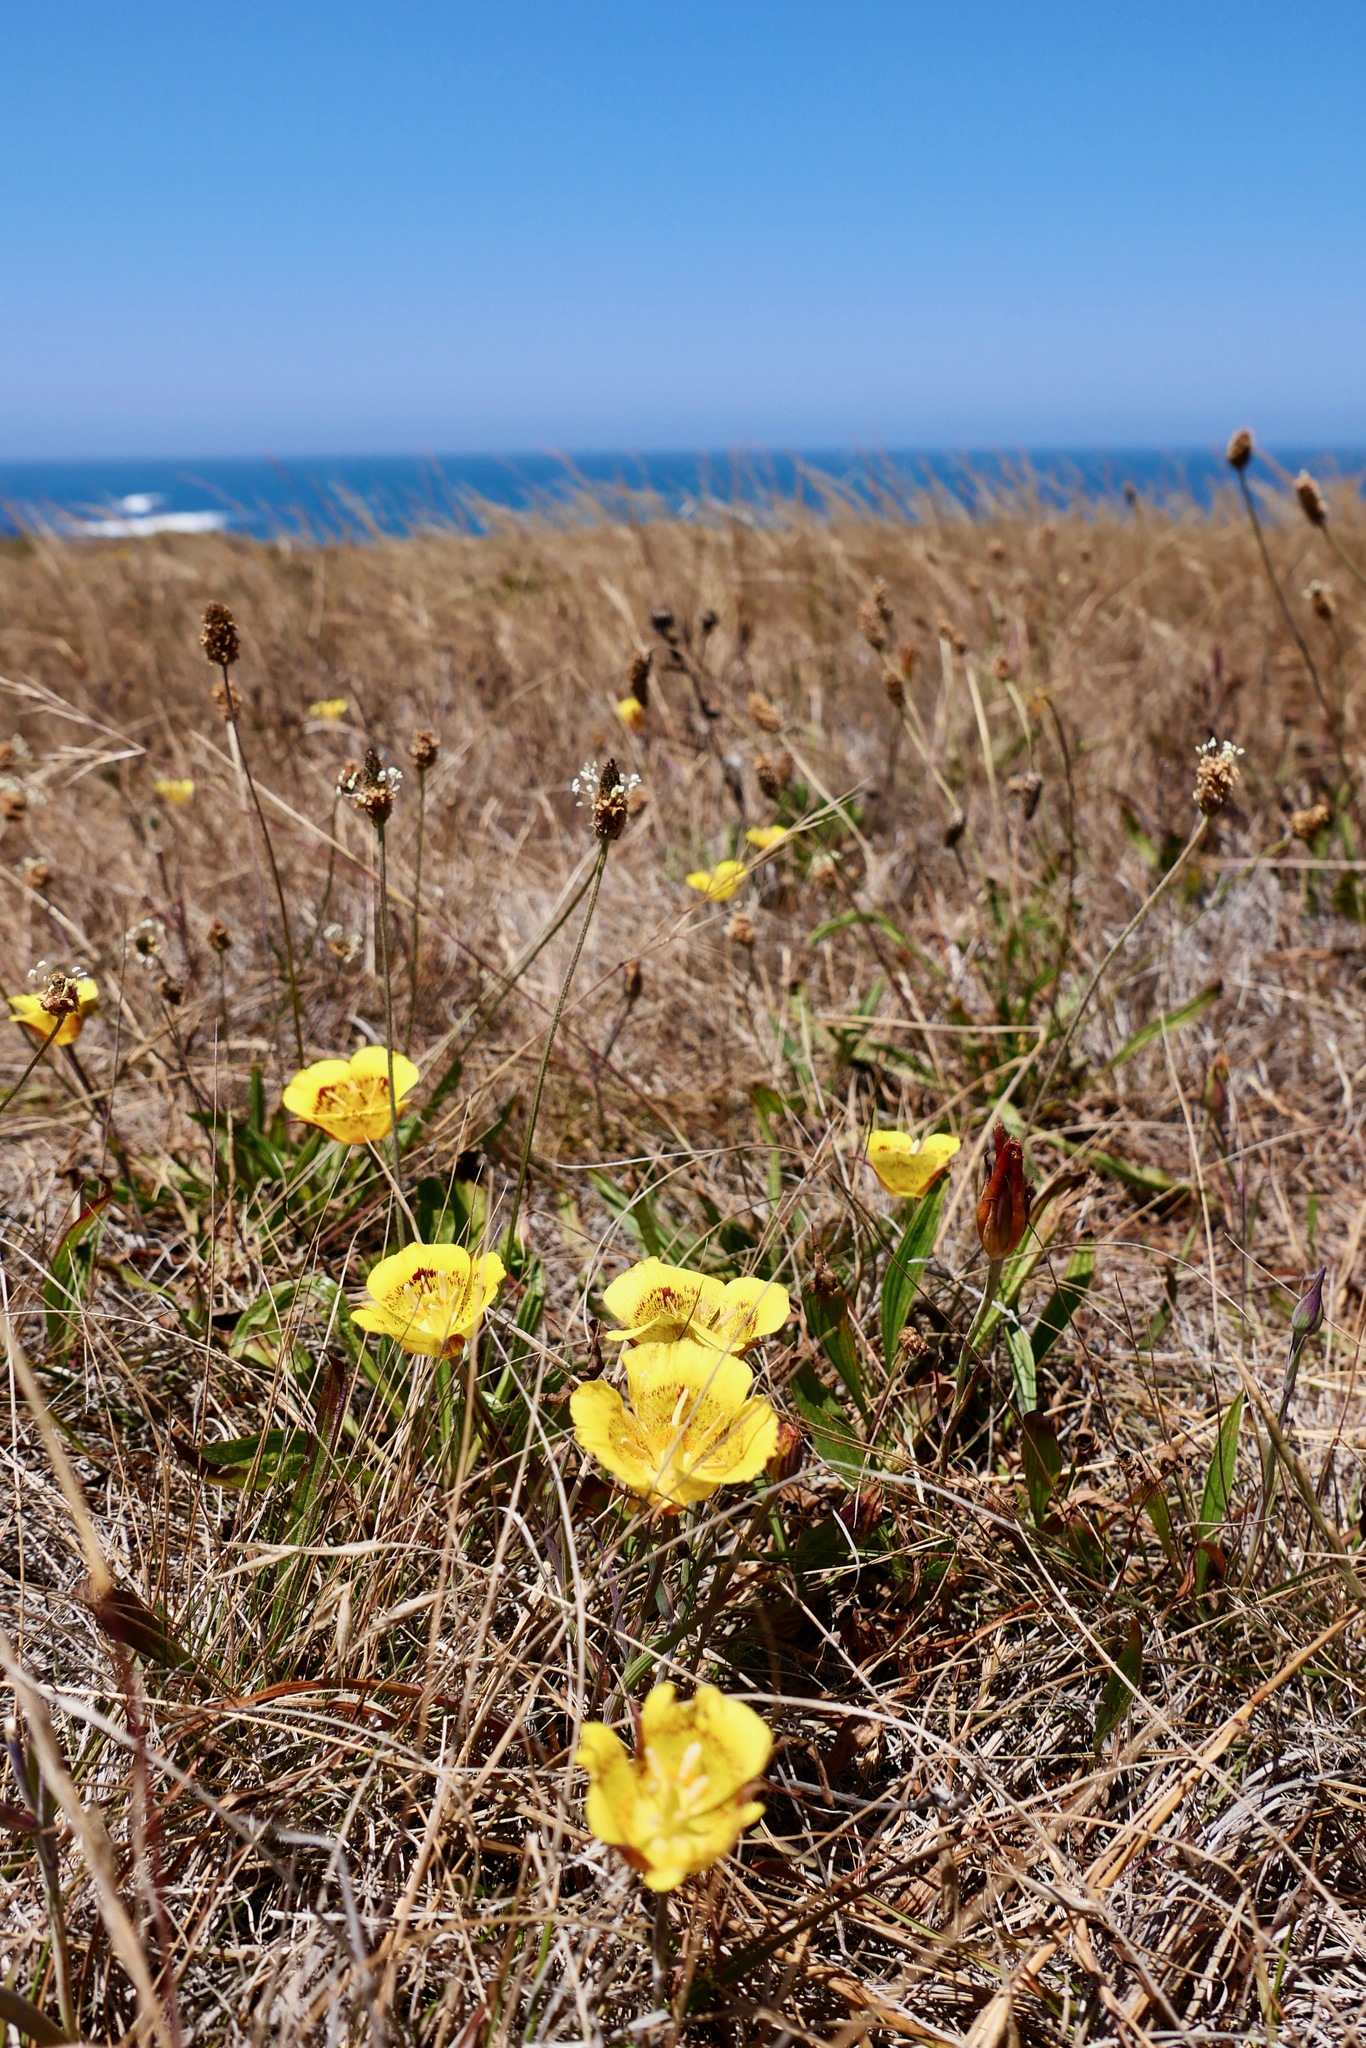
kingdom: Plantae
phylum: Tracheophyta
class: Liliopsida
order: Liliales
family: Liliaceae
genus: Calochortus
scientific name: Calochortus luteus
